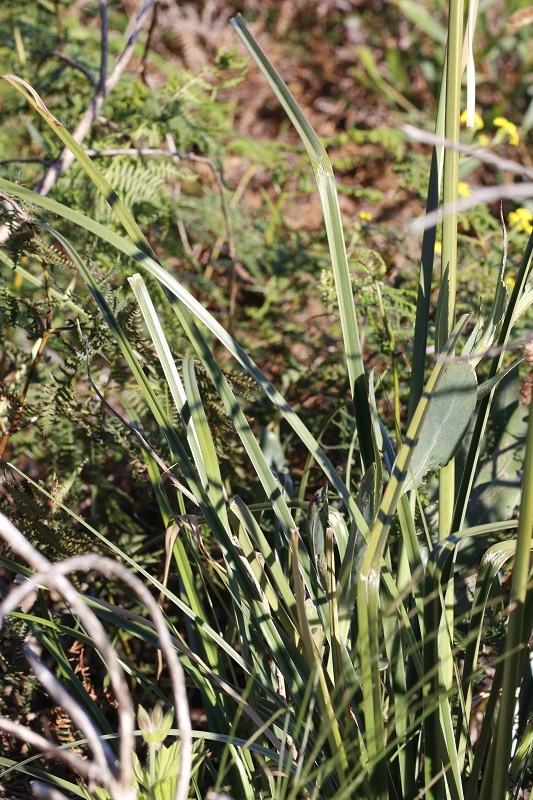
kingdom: Plantae
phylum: Tracheophyta
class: Liliopsida
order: Poales
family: Cyperaceae
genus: Cyperus
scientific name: Cyperus thunbergii
